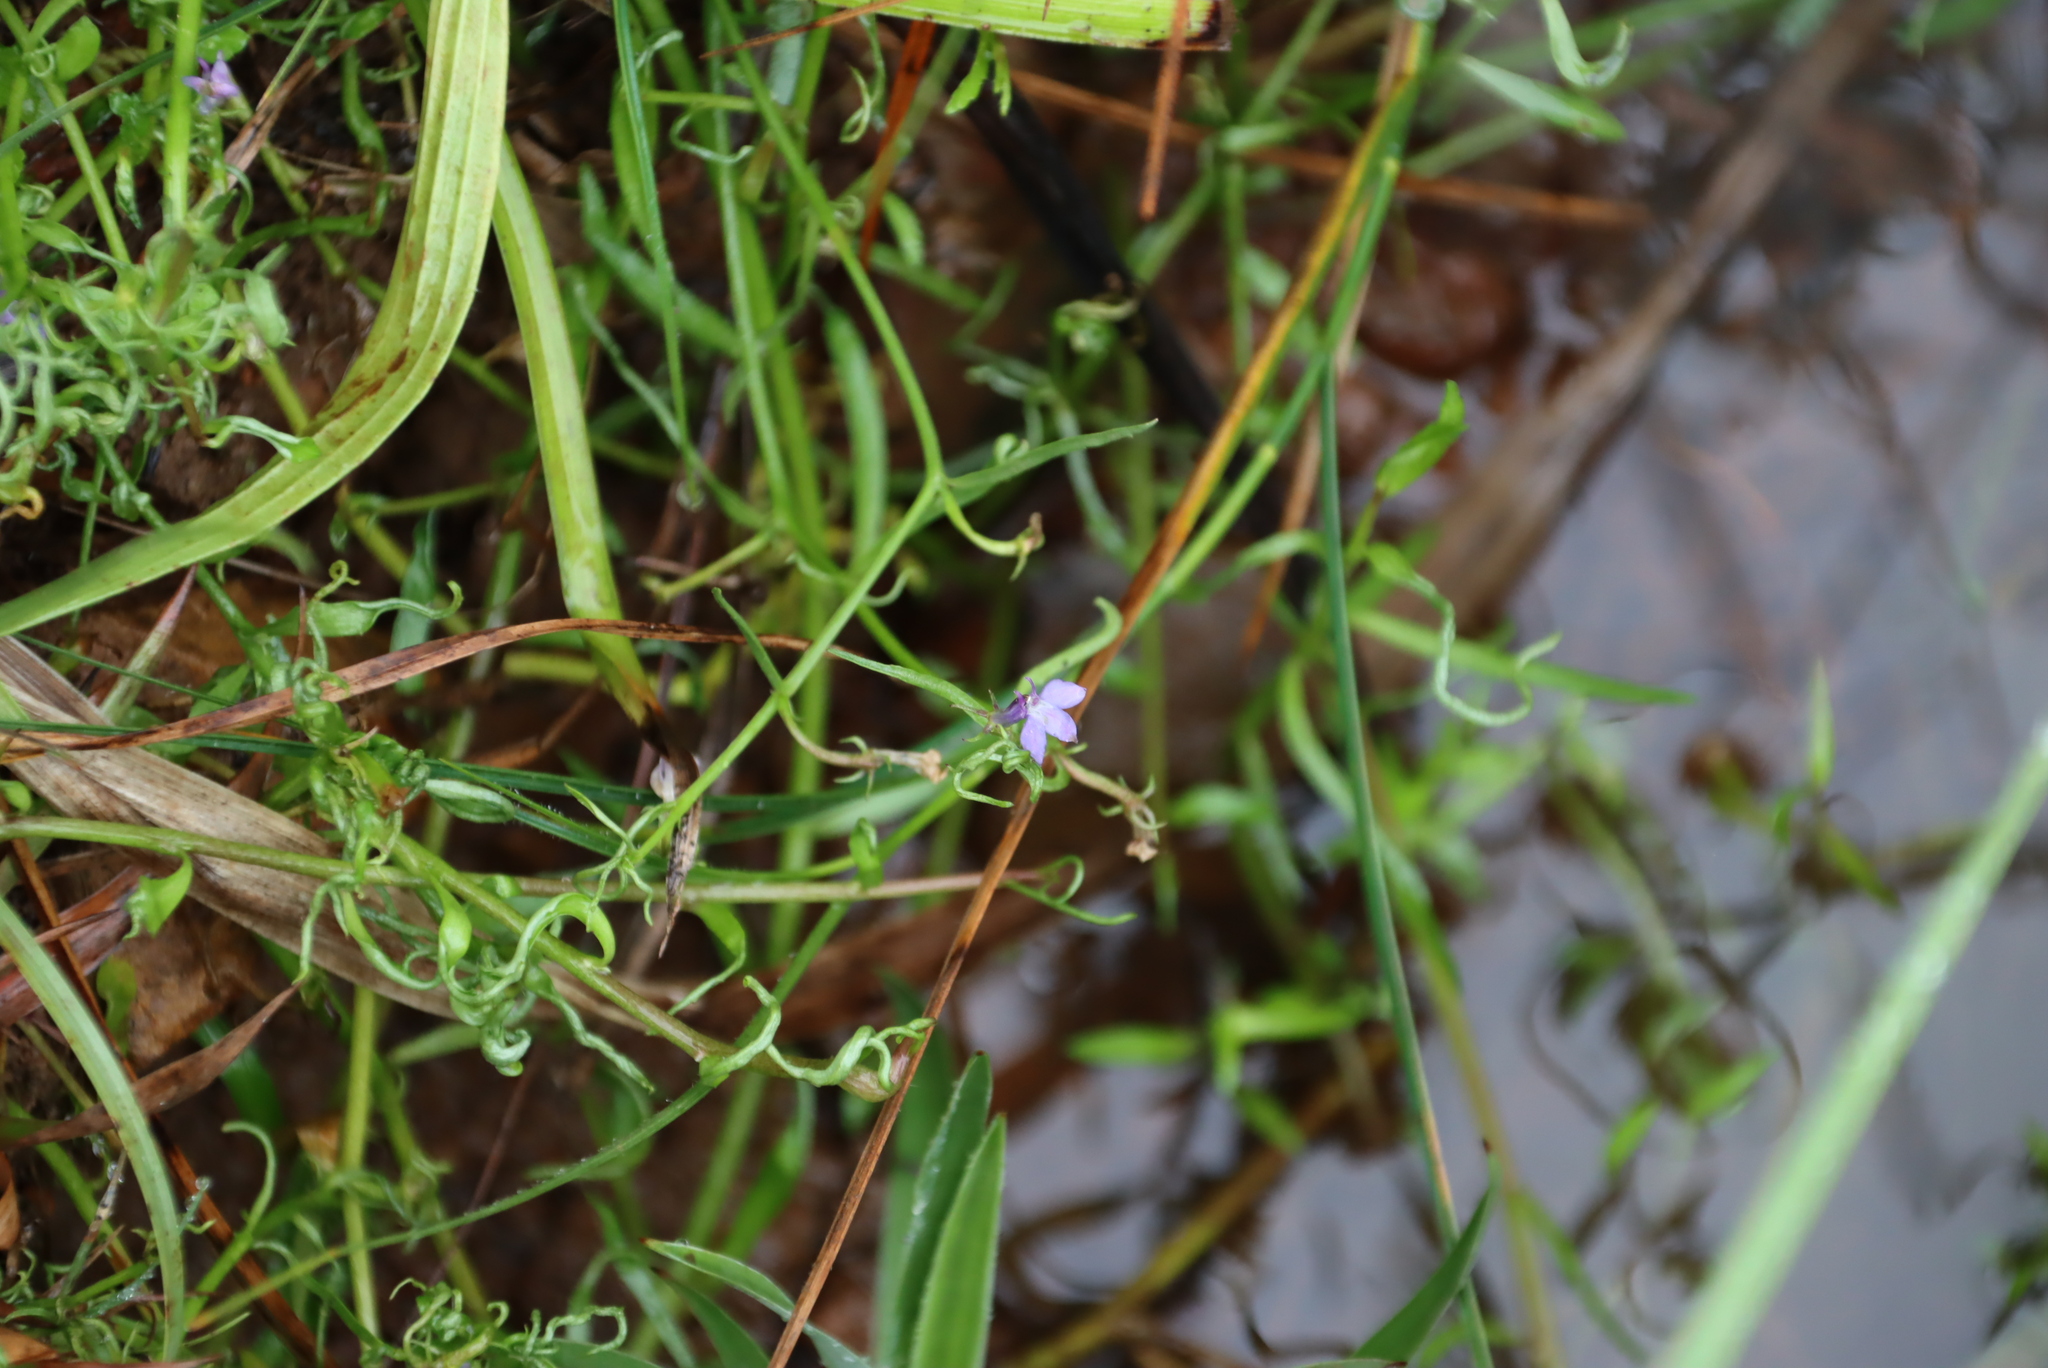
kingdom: Plantae
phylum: Tracheophyta
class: Magnoliopsida
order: Asterales
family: Campanulaceae
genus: Grammatotheca
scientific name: Grammatotheca bergiana
